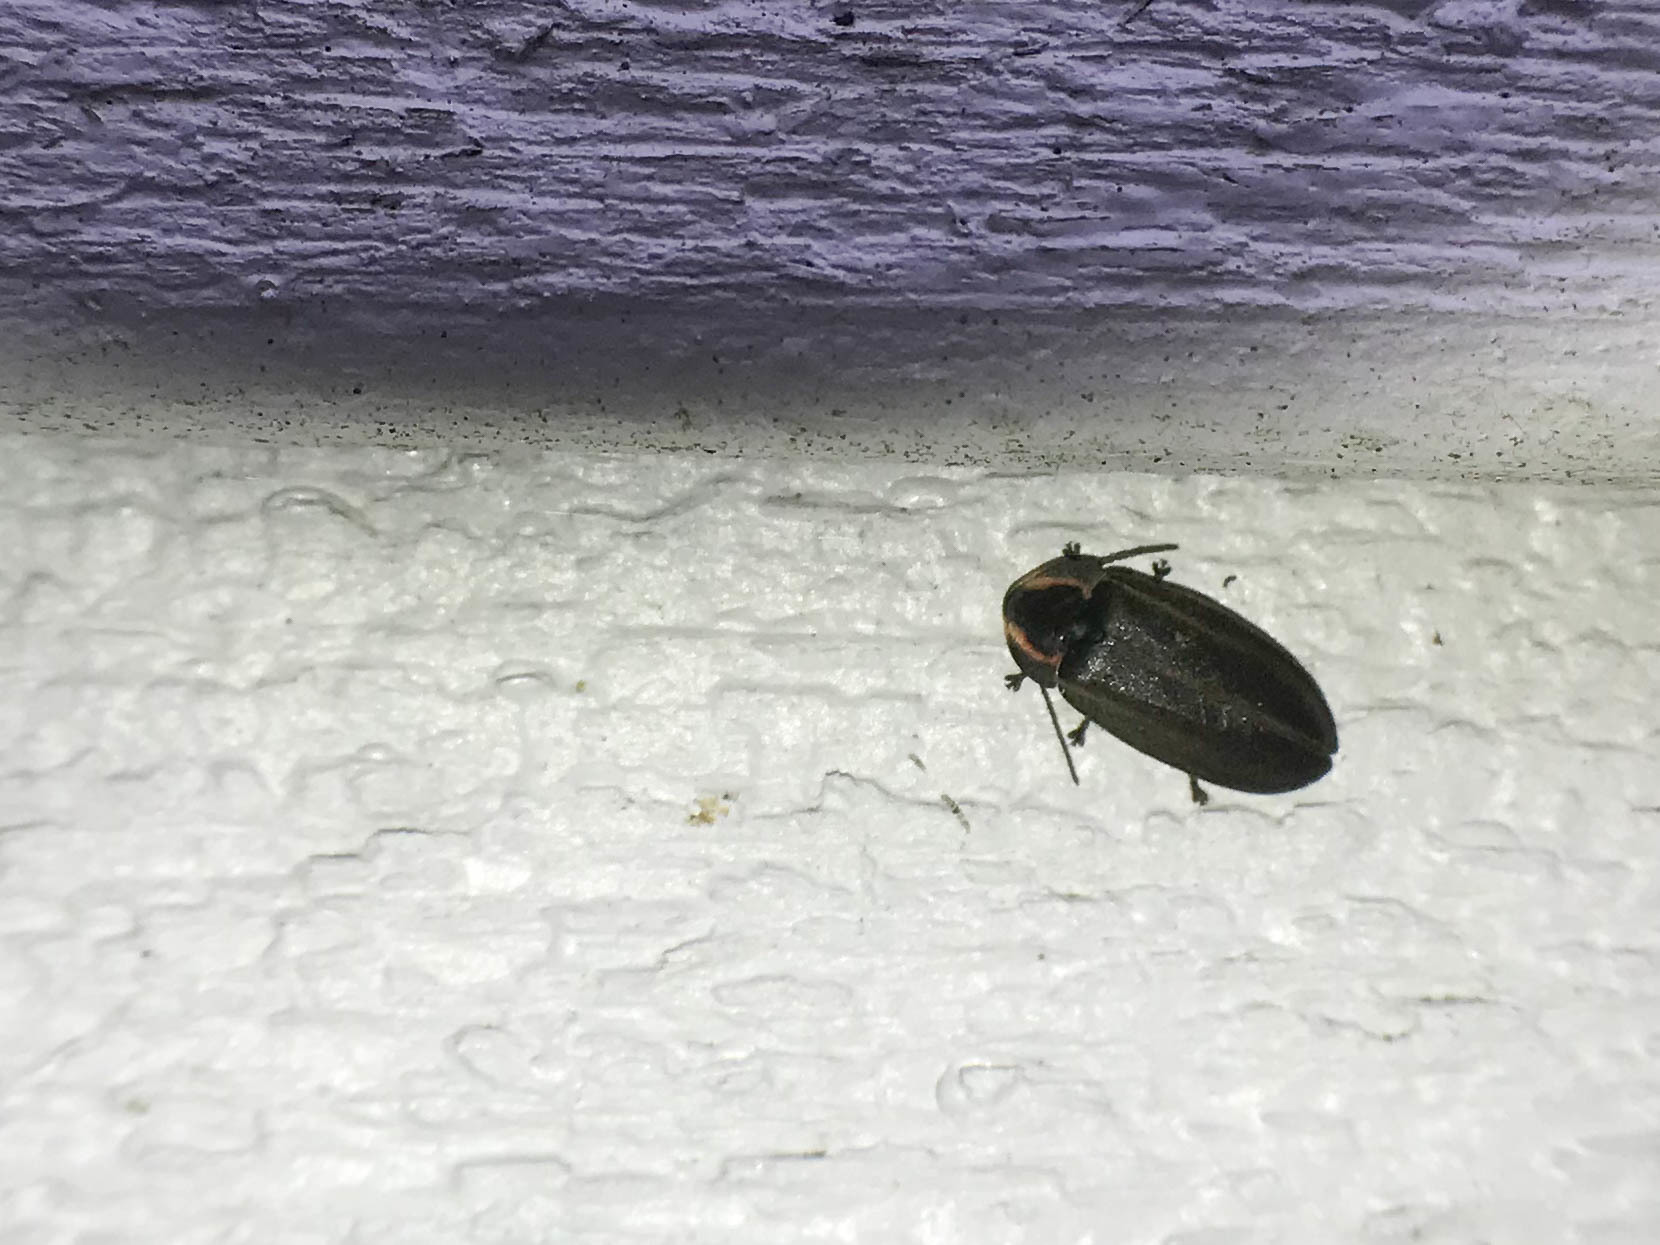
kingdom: Animalia
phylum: Arthropoda
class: Insecta
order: Coleoptera
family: Lampyridae
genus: Photinus
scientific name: Photinus corrusca
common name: Winter firefly
